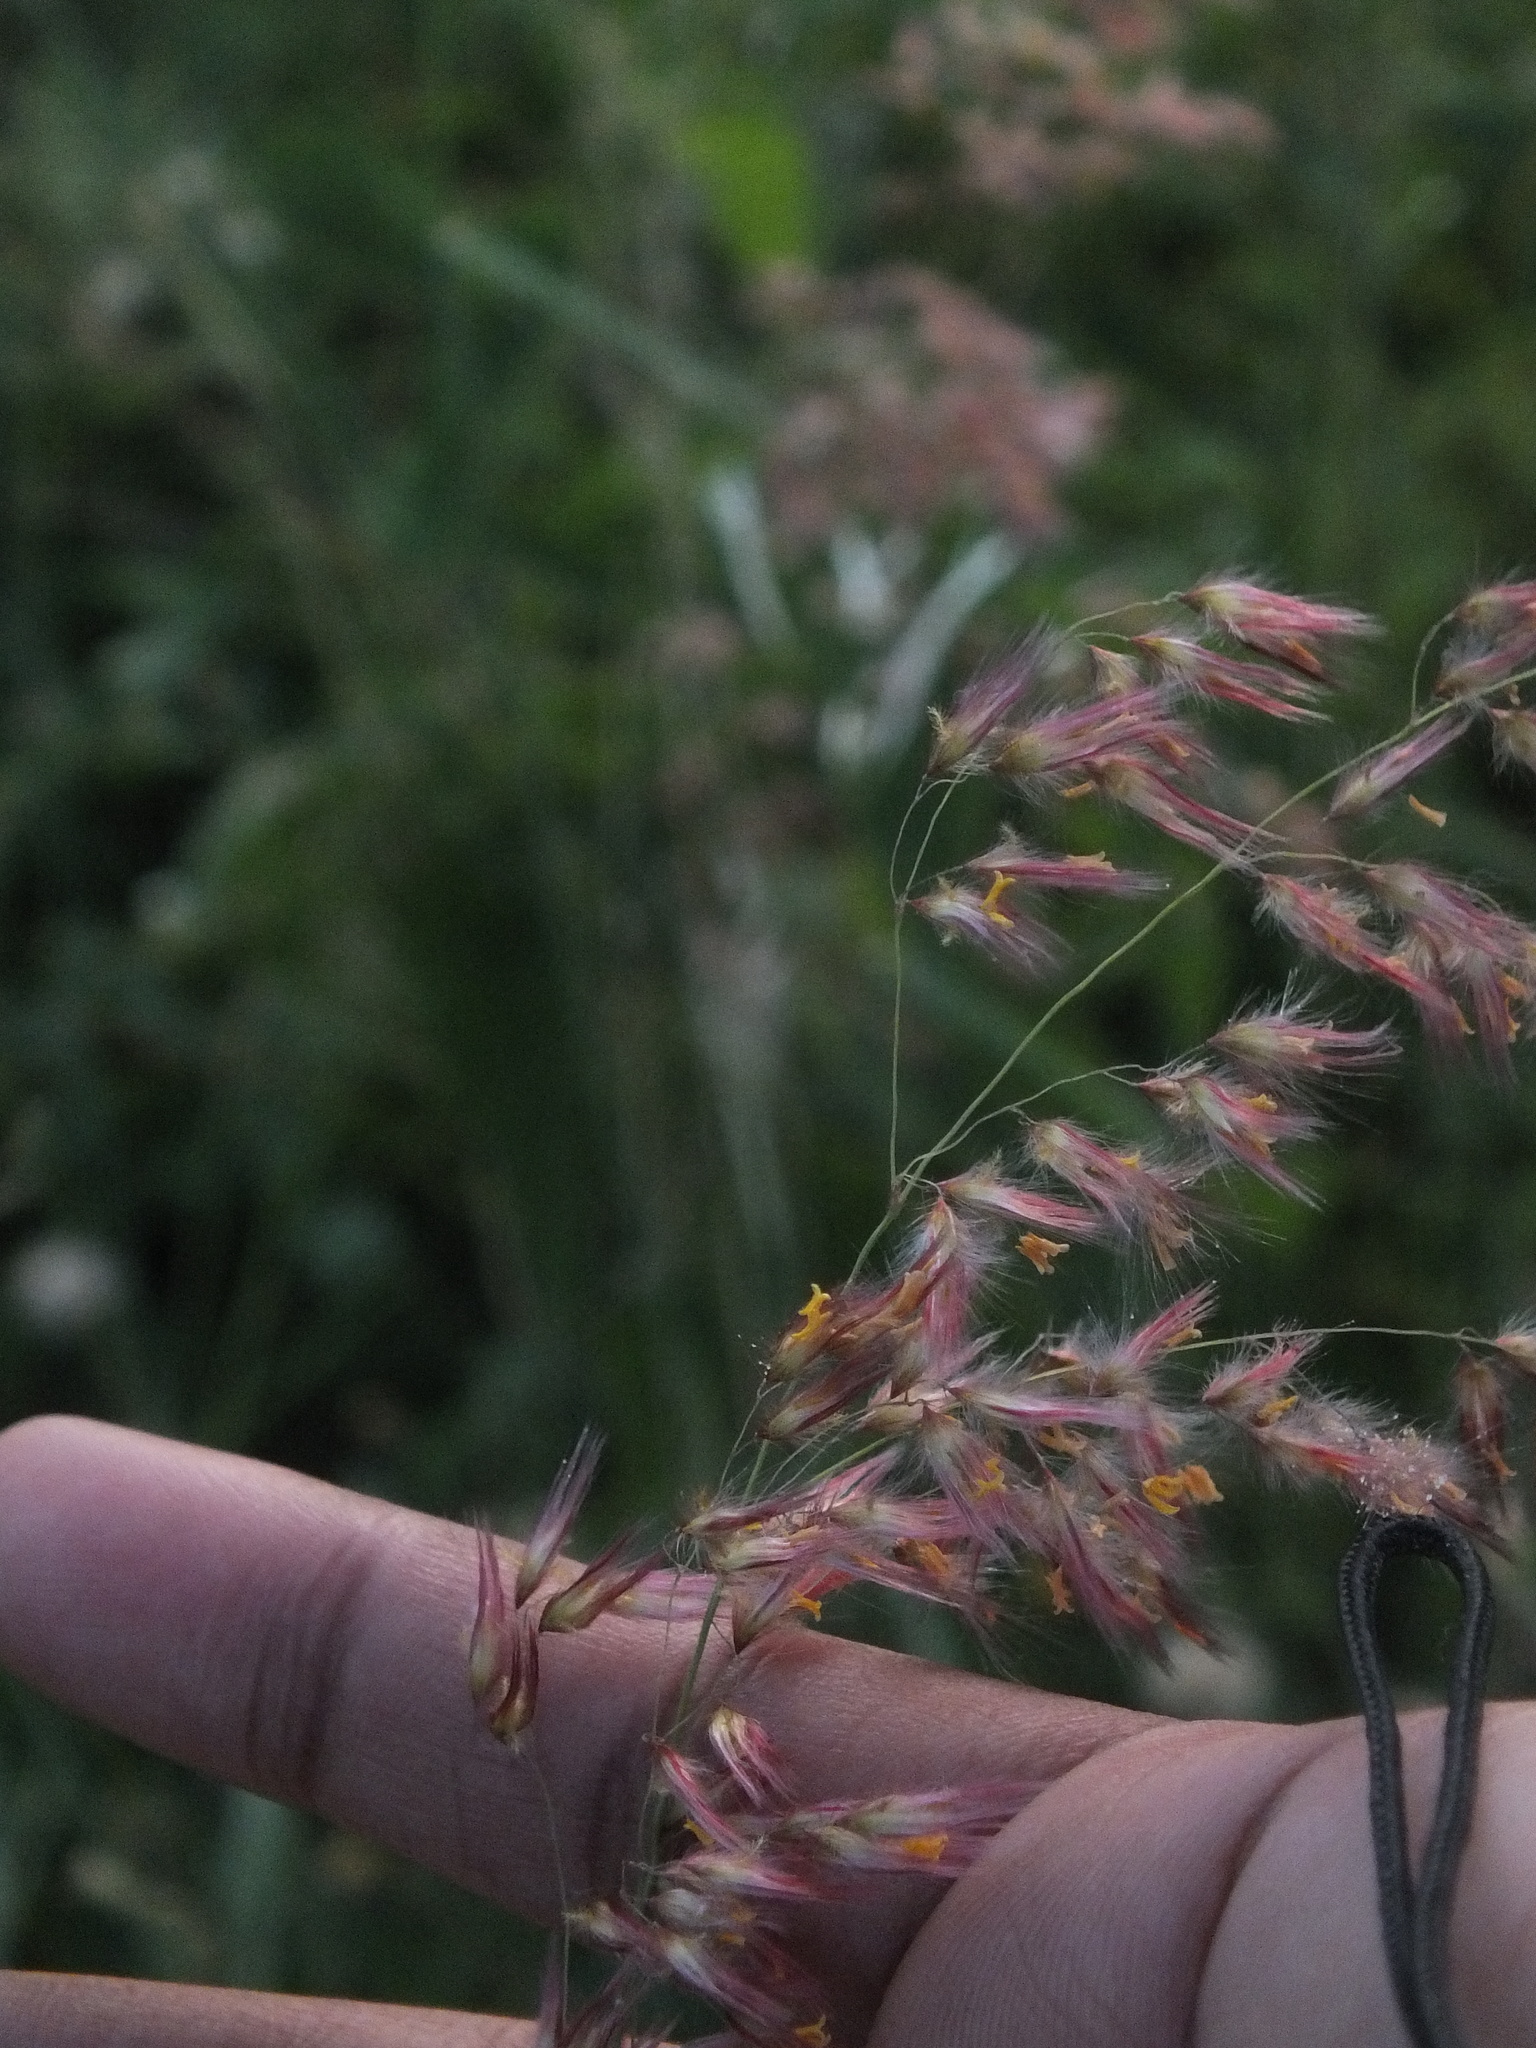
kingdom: Plantae
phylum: Tracheophyta
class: Liliopsida
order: Poales
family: Poaceae
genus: Melinis
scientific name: Melinis repens
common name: Rose natal grass
